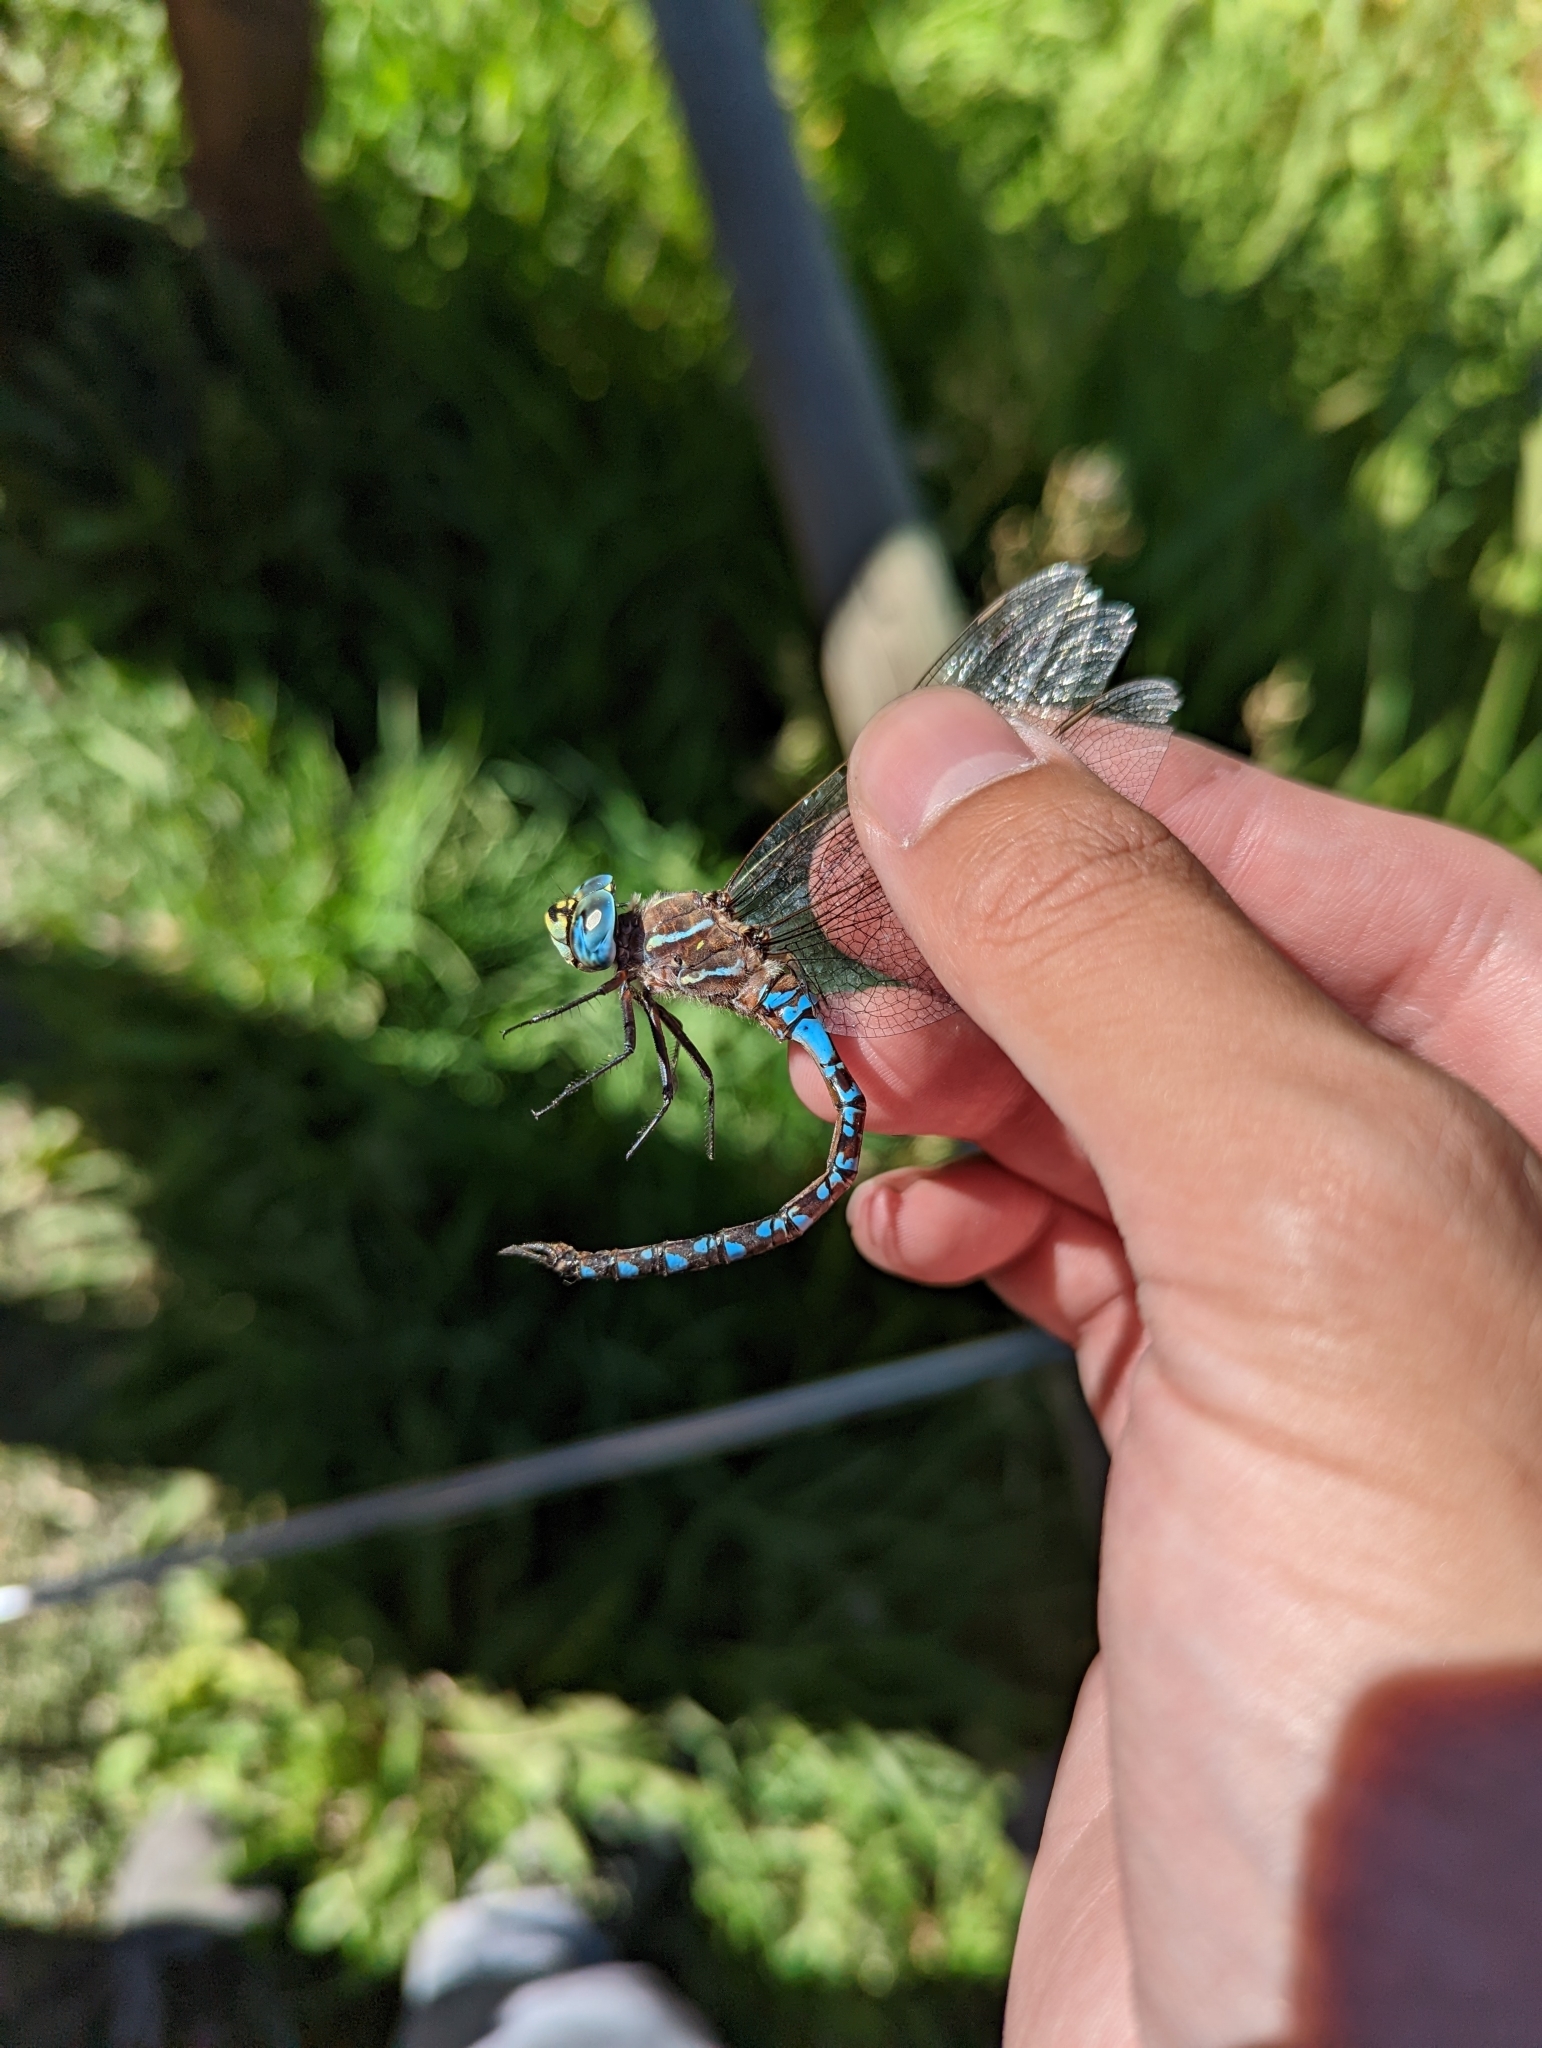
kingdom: Animalia
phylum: Arthropoda
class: Insecta
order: Odonata
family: Aeshnidae
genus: Aeshna
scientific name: Aeshna interrupta
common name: Variable darner
